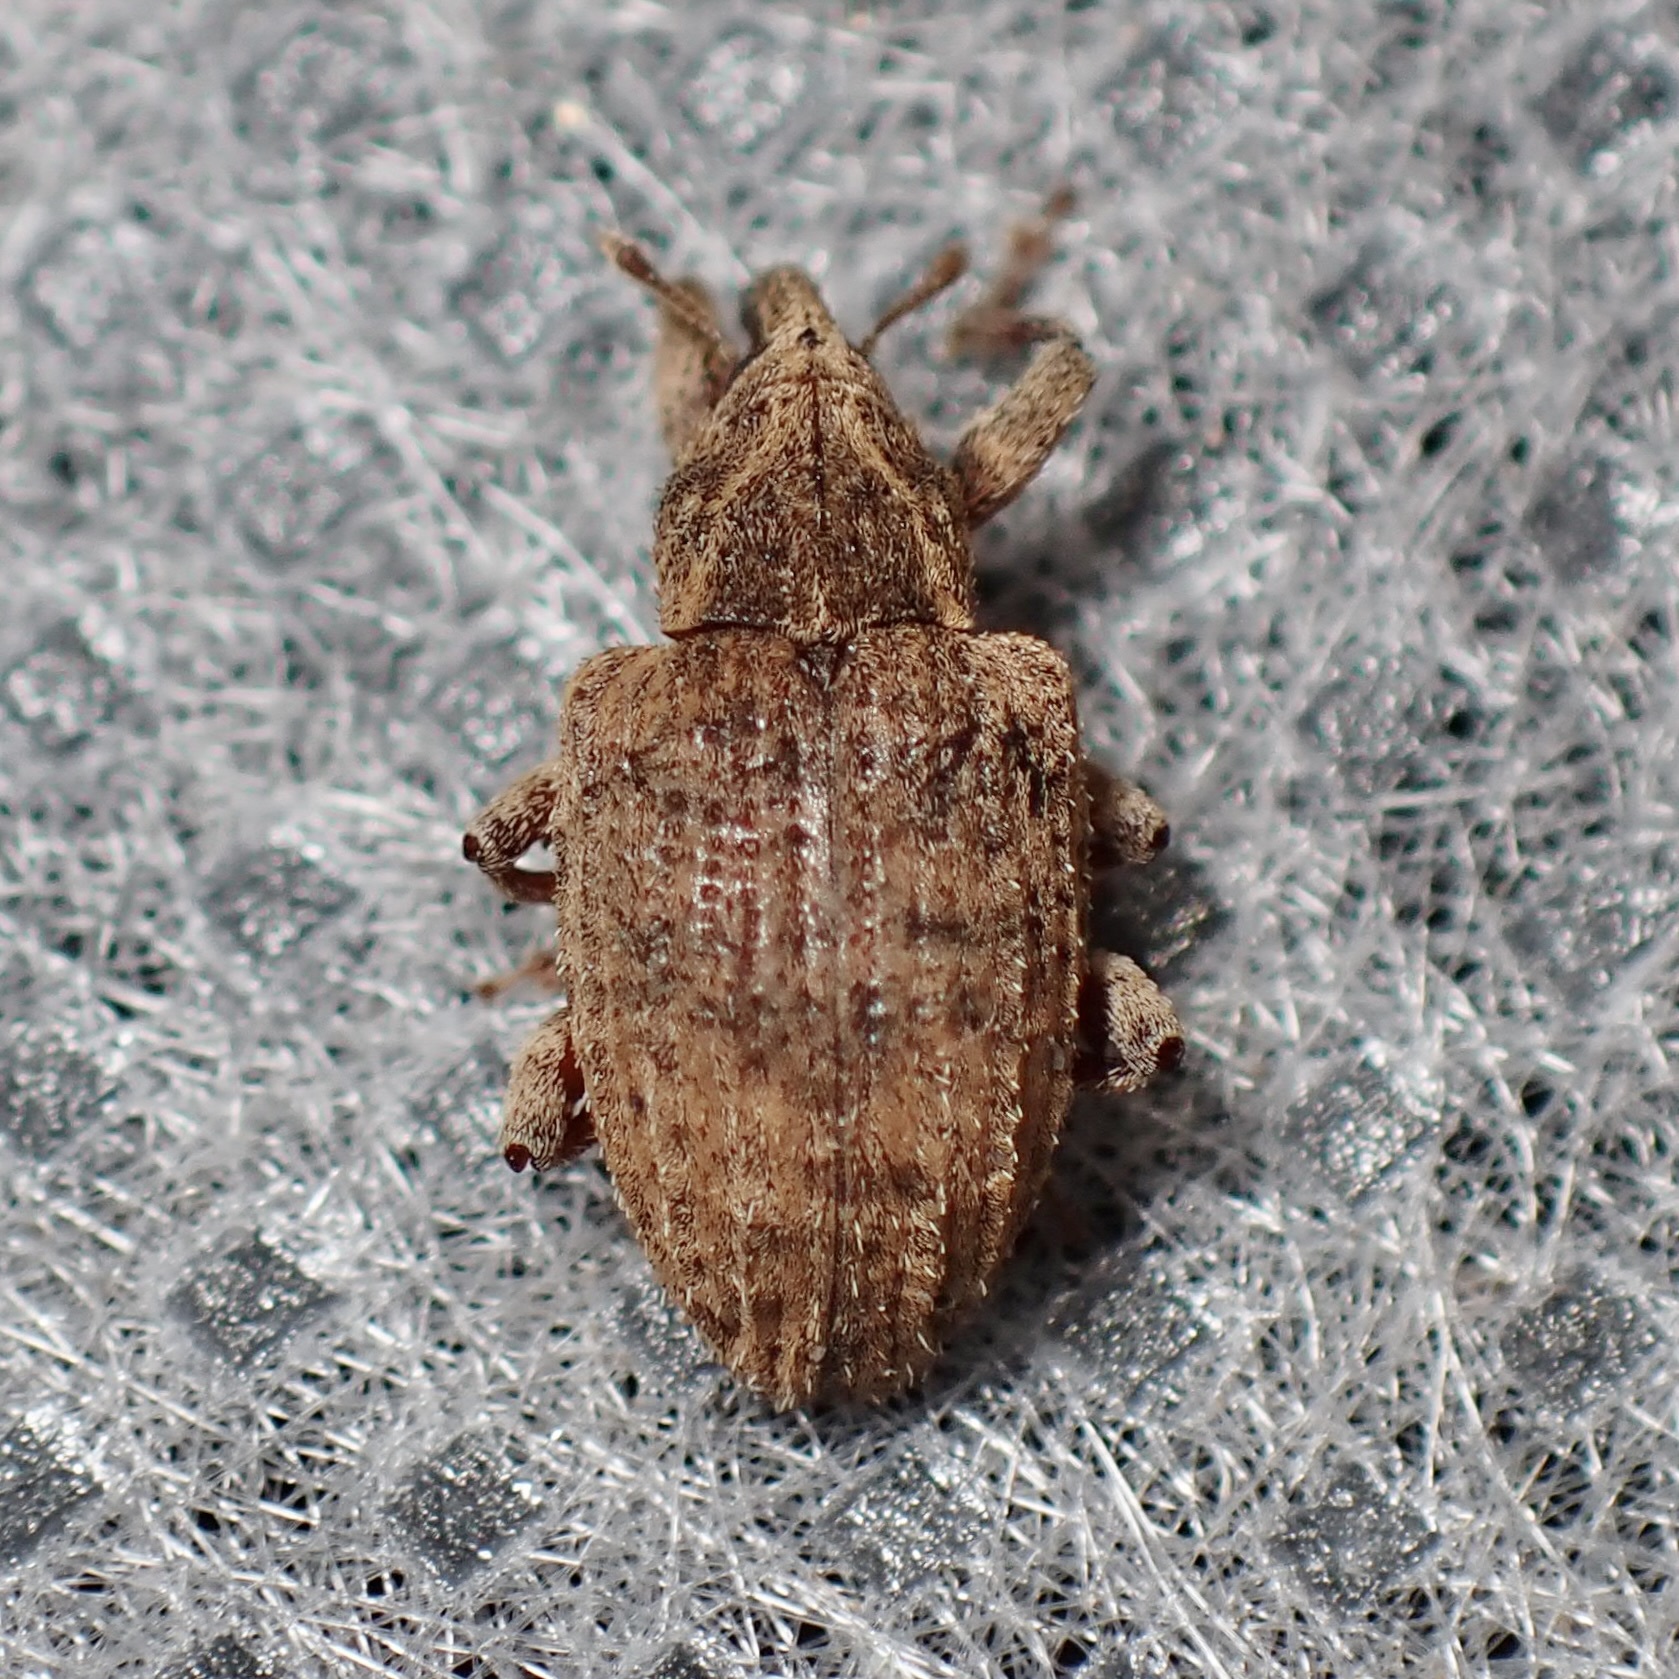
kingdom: Animalia
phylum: Arthropoda
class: Insecta
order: Coleoptera
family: Curculionidae
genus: Conotrachelus
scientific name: Conotrachelus seniculus
